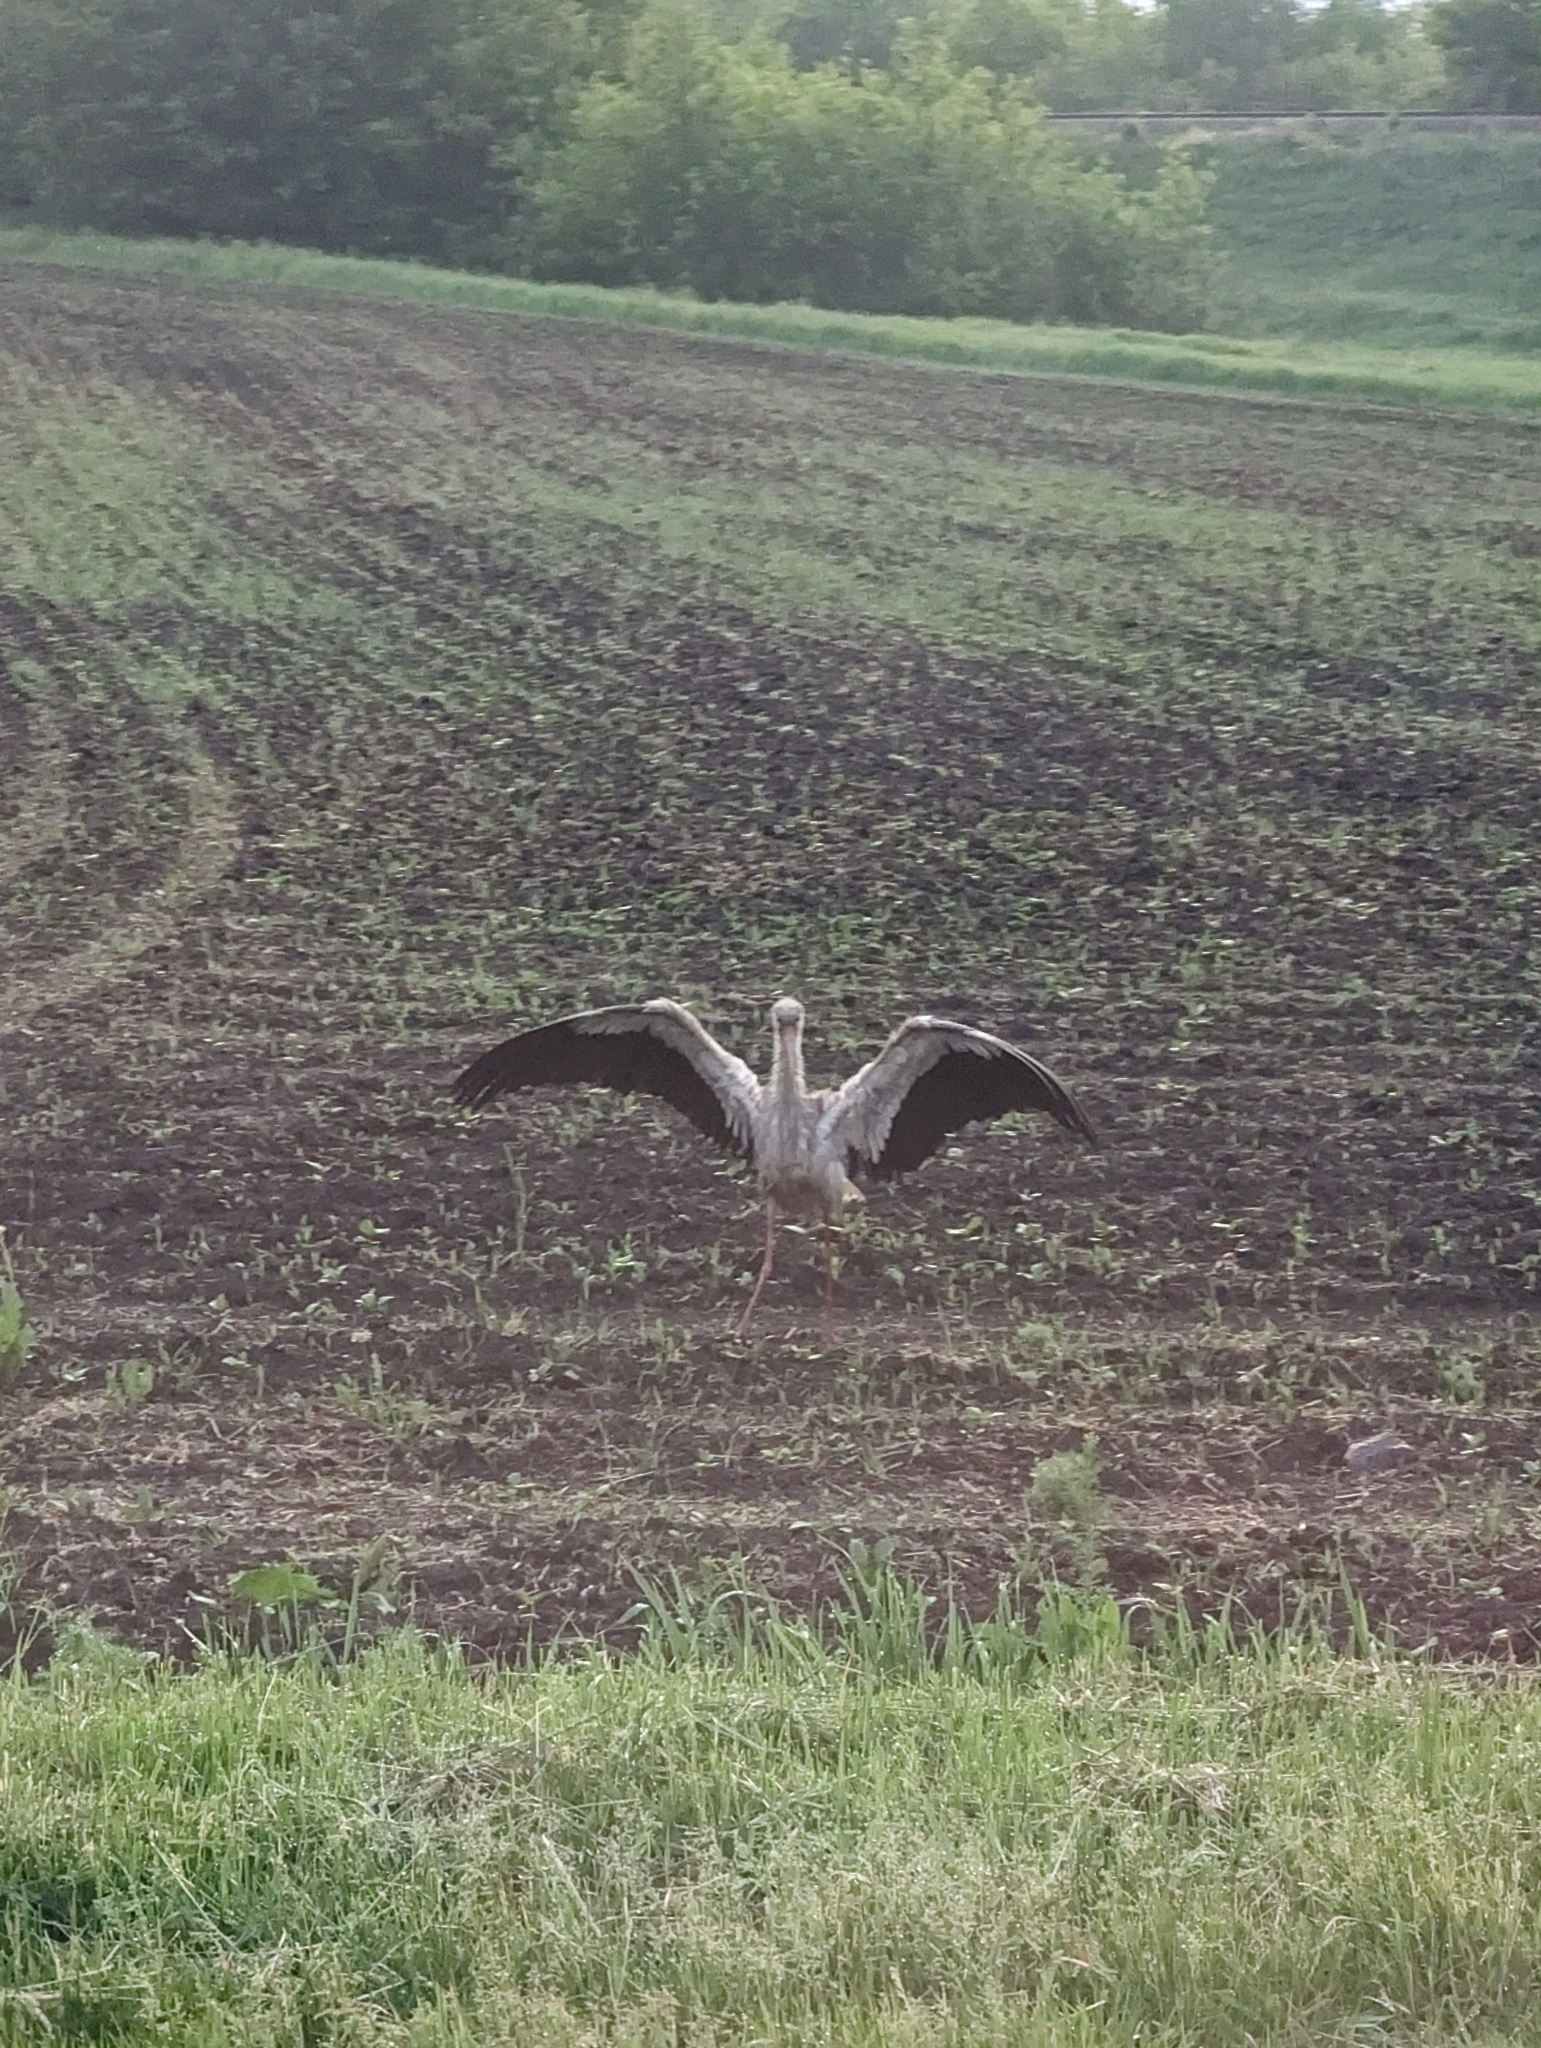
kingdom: Animalia
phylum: Chordata
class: Aves
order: Ciconiiformes
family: Ciconiidae
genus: Ciconia
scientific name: Ciconia ciconia
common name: White stork
